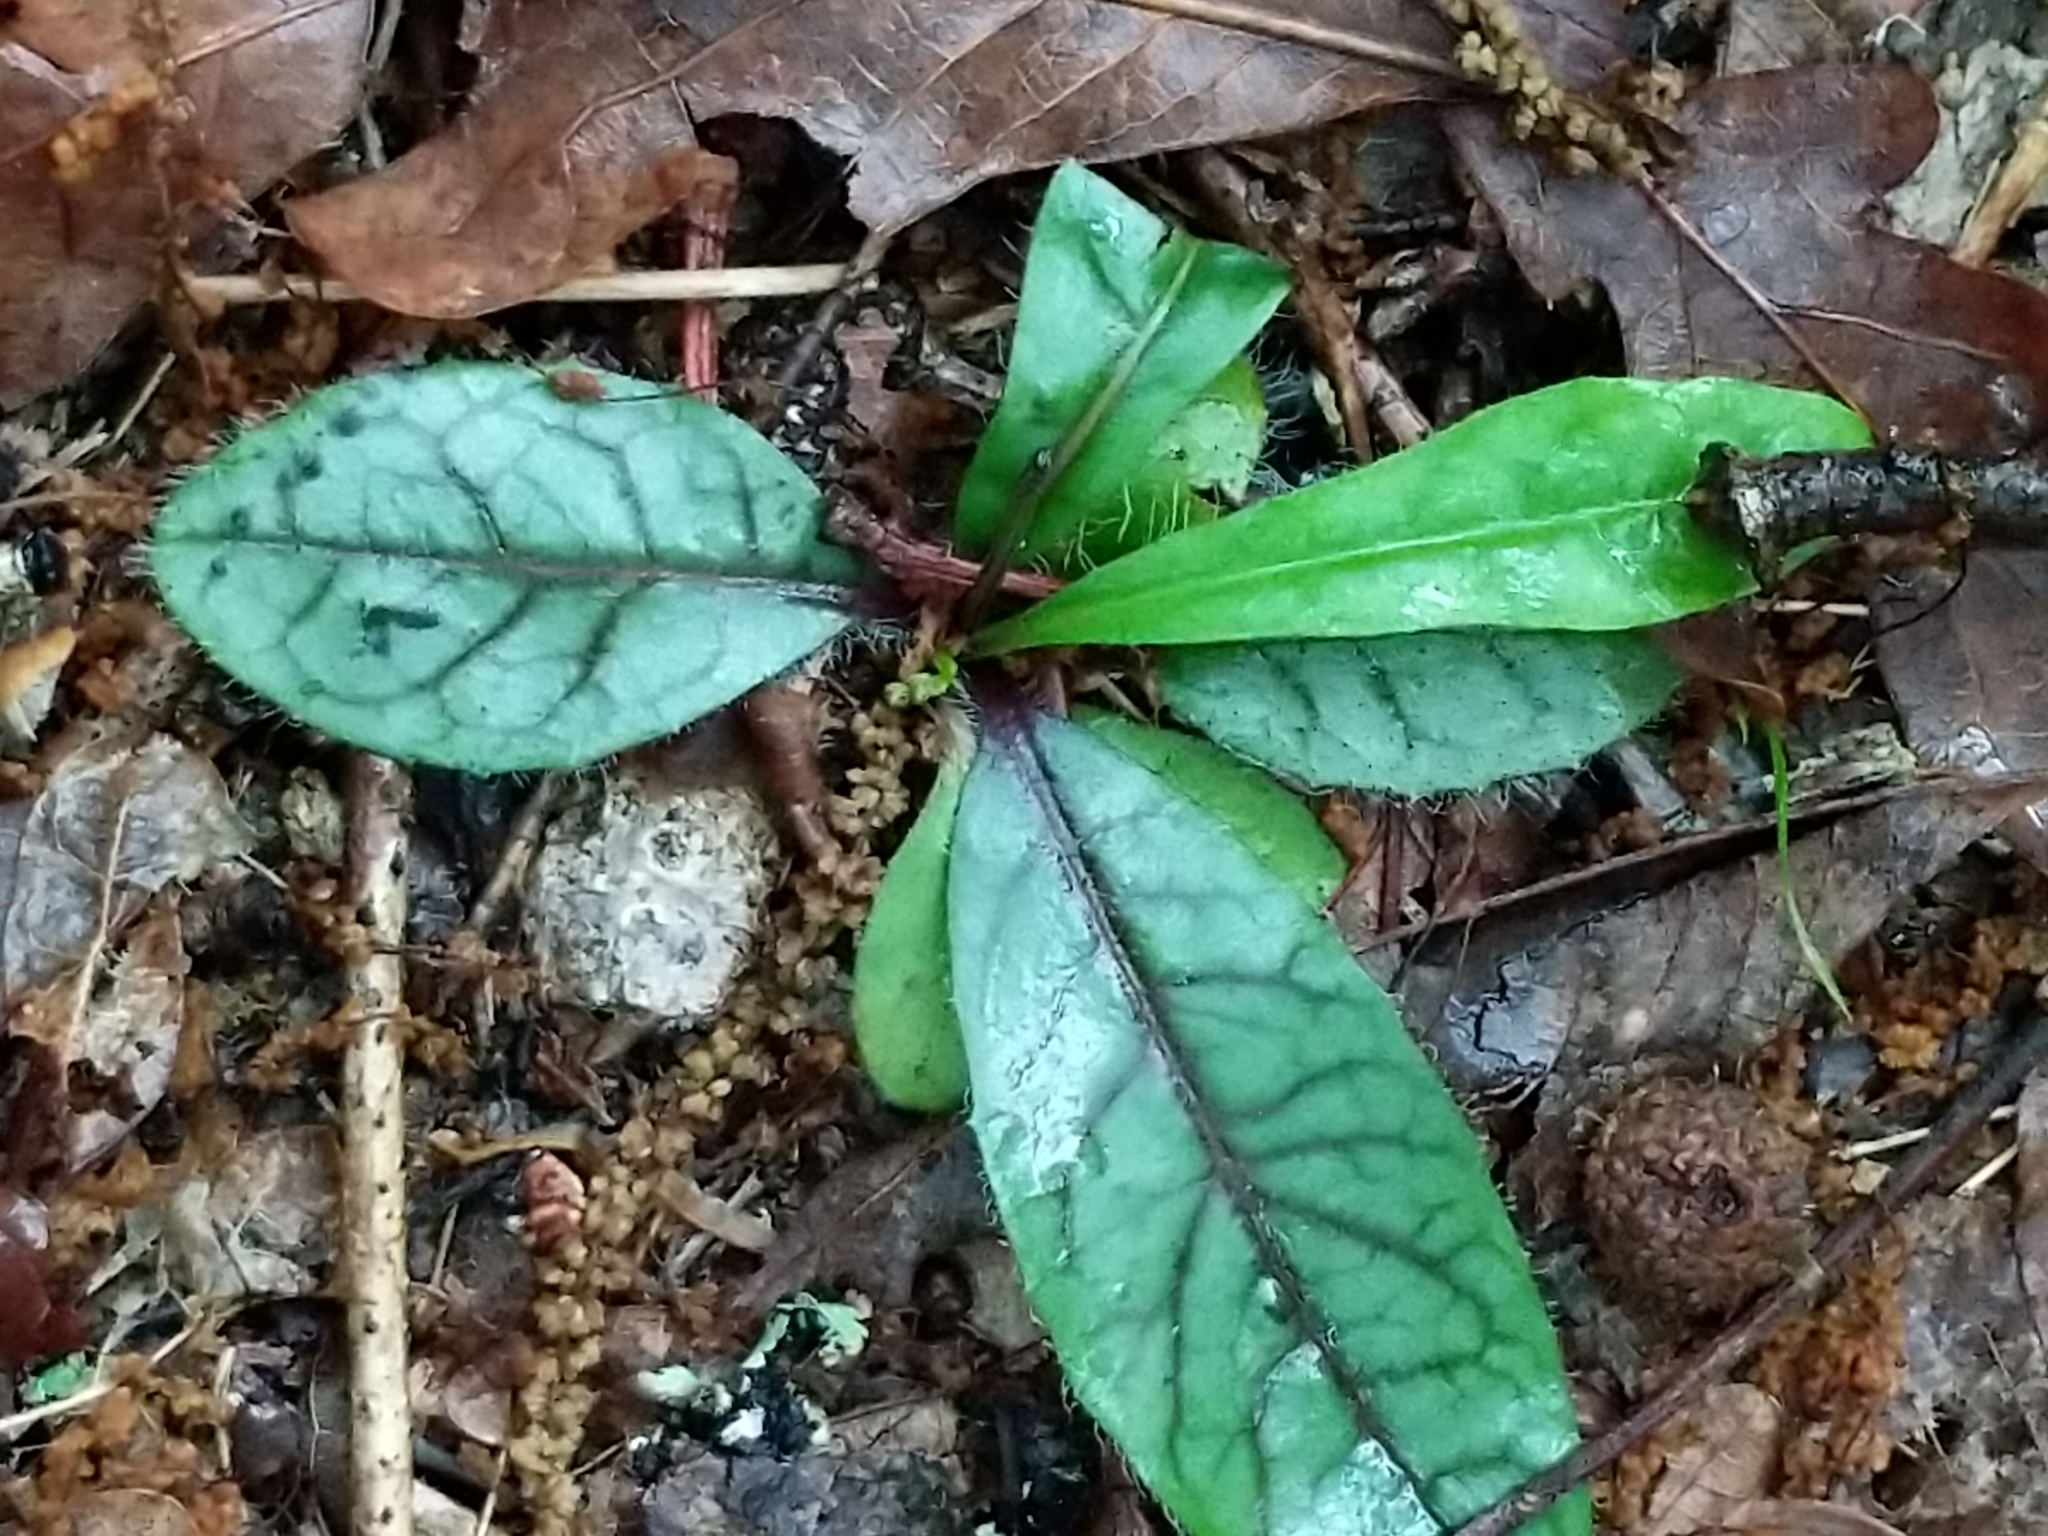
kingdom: Plantae
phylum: Tracheophyta
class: Magnoliopsida
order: Asterales
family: Asteraceae
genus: Hieracium
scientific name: Hieracium venosum
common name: Rattlesnake hawkweed
